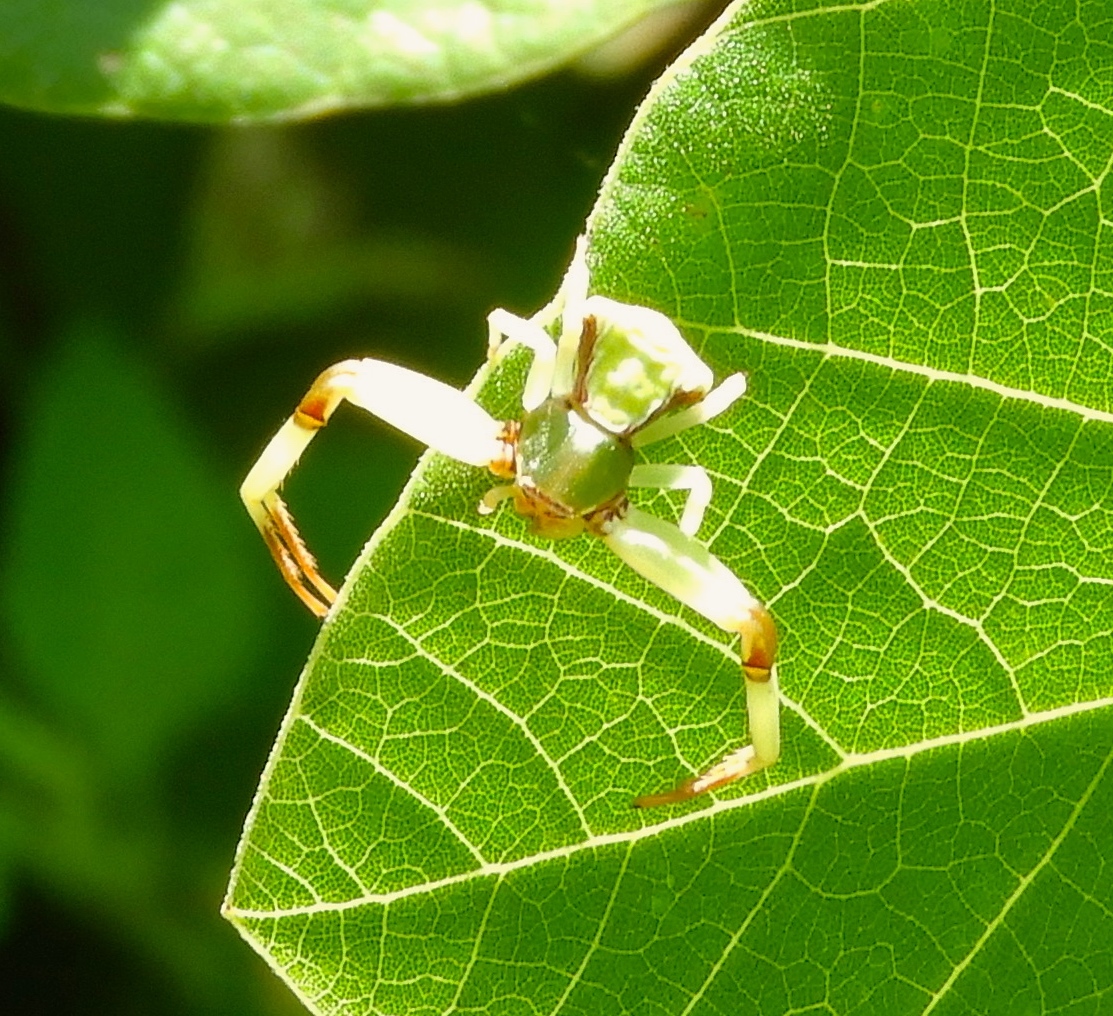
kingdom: Animalia
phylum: Arthropoda
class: Arachnida
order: Araneae
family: Thomisidae
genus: Misumenoides
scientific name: Misumenoides
